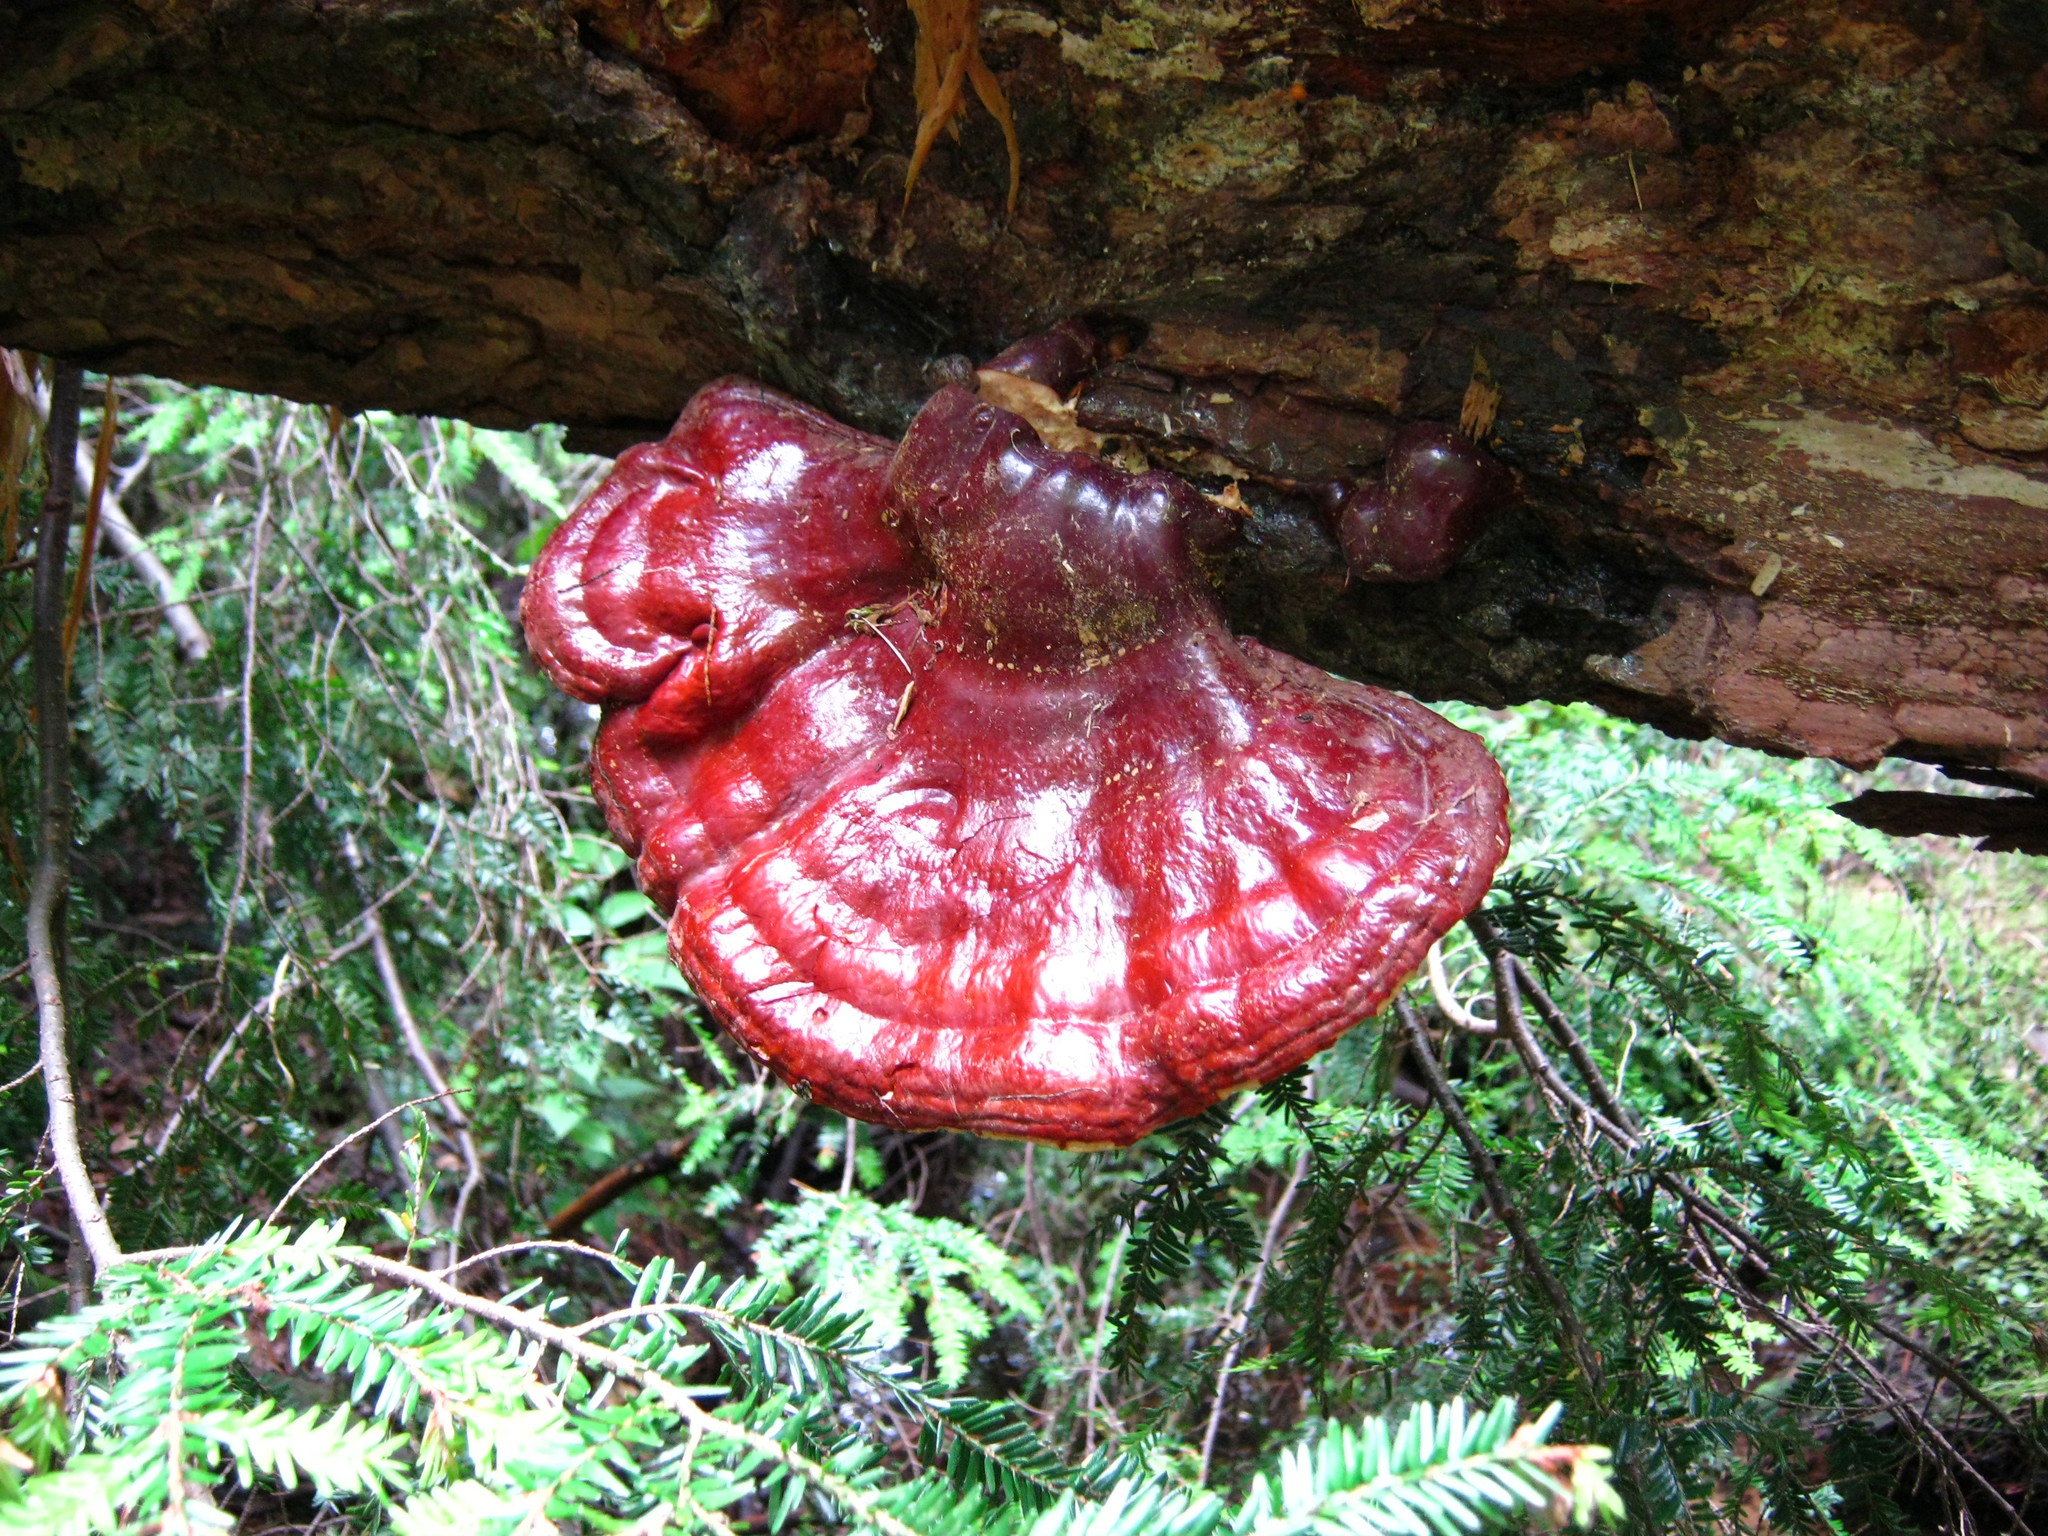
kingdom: Fungi
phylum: Basidiomycota
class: Agaricomycetes
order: Polyporales
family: Polyporaceae
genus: Ganoderma
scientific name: Ganoderma tsugae
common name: Hemlock varnish shelf
